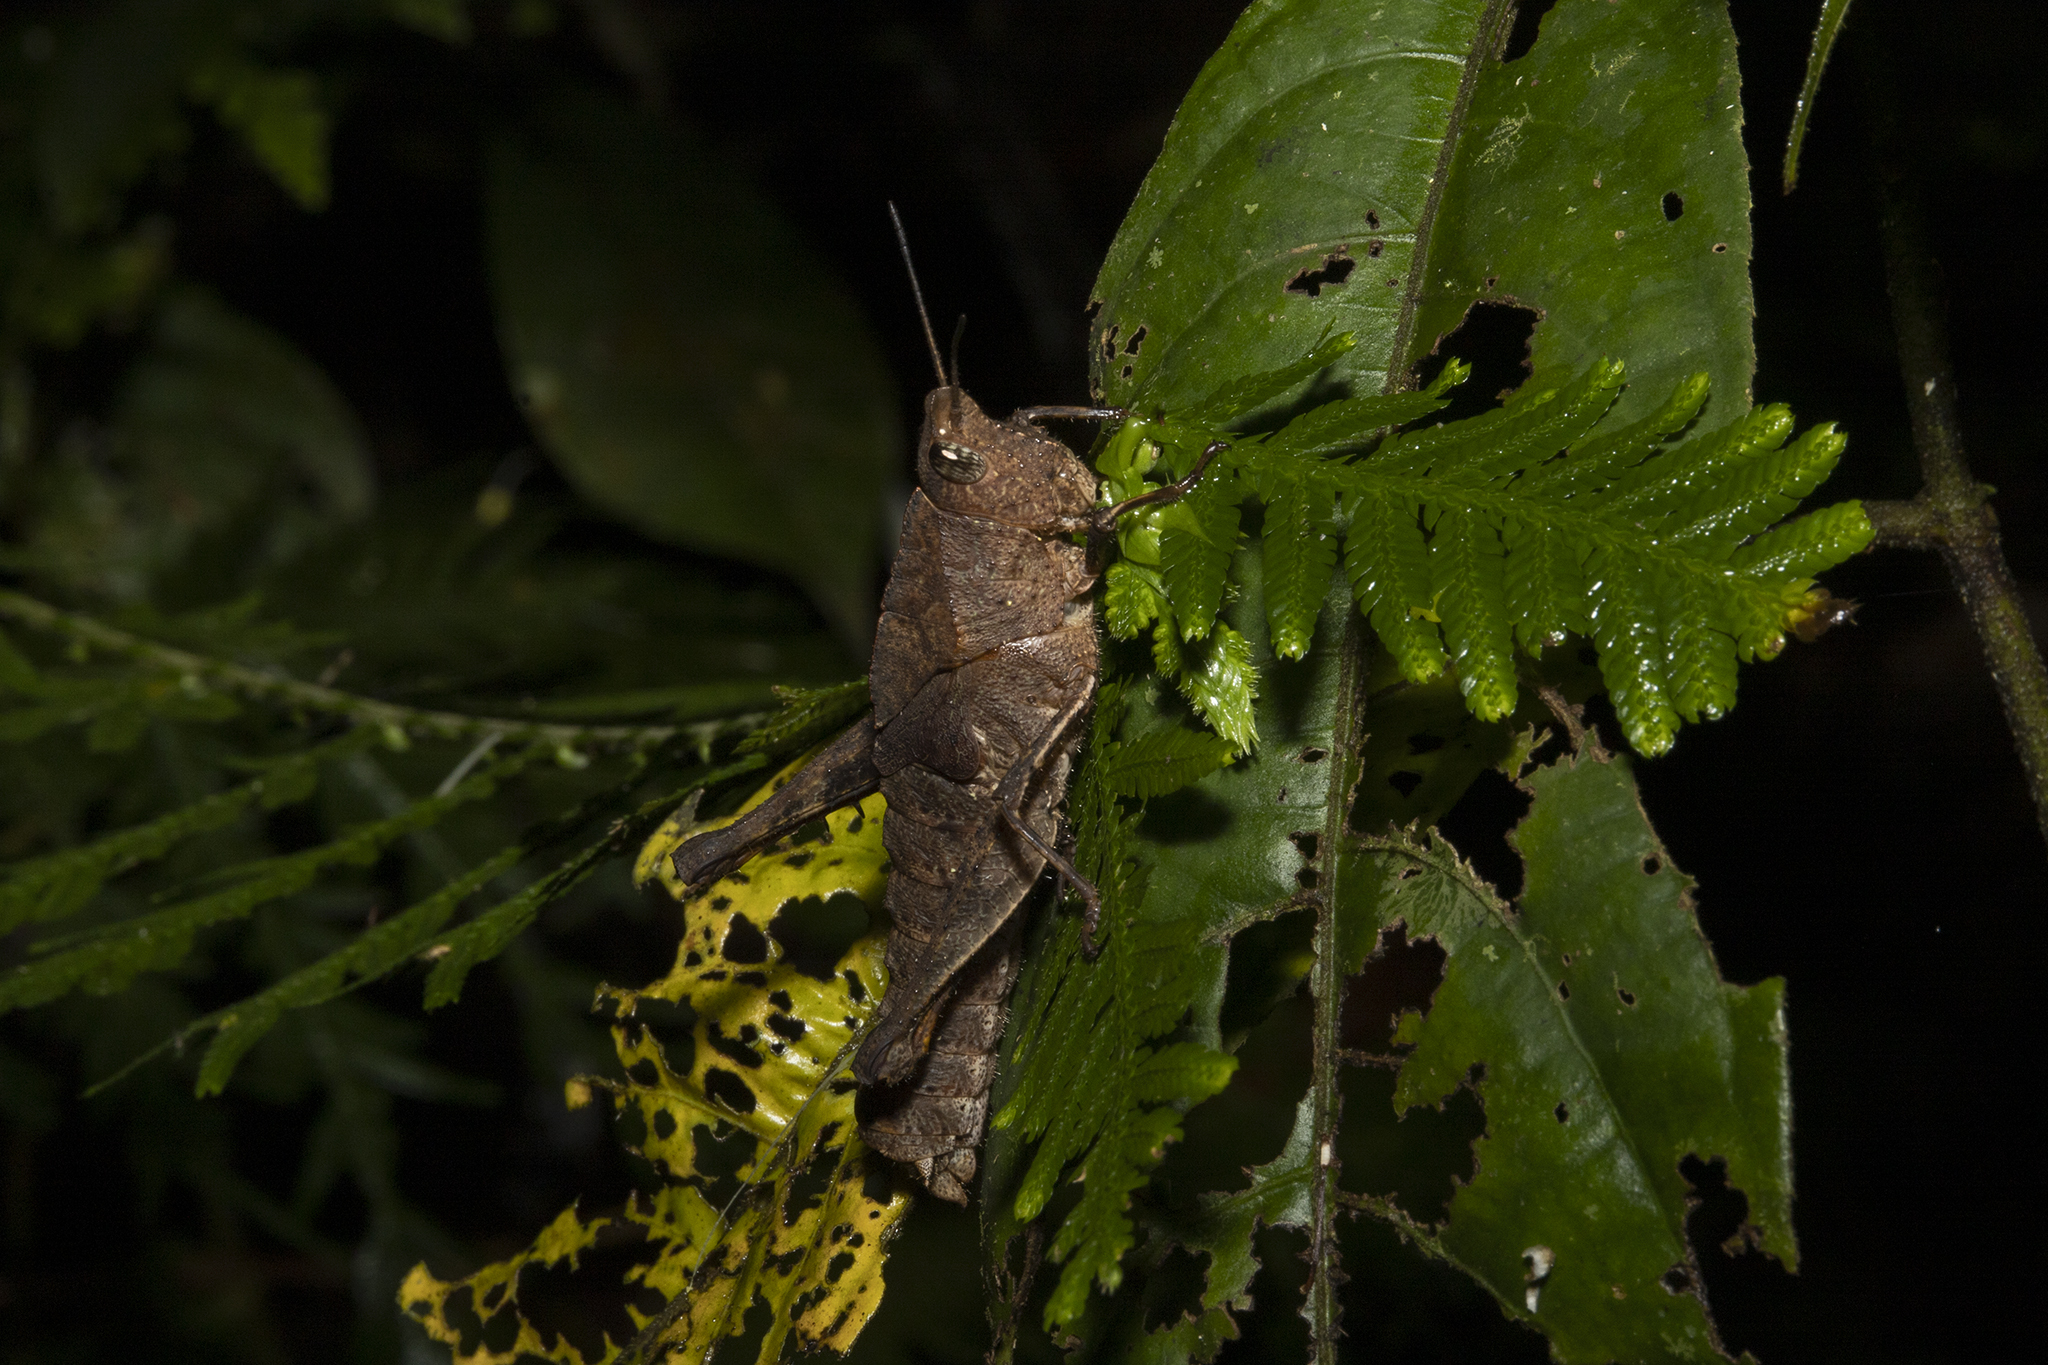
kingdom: Animalia
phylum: Arthropoda
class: Insecta
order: Orthoptera
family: Romaleidae
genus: Colpolopha
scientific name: Colpolopha biloba
